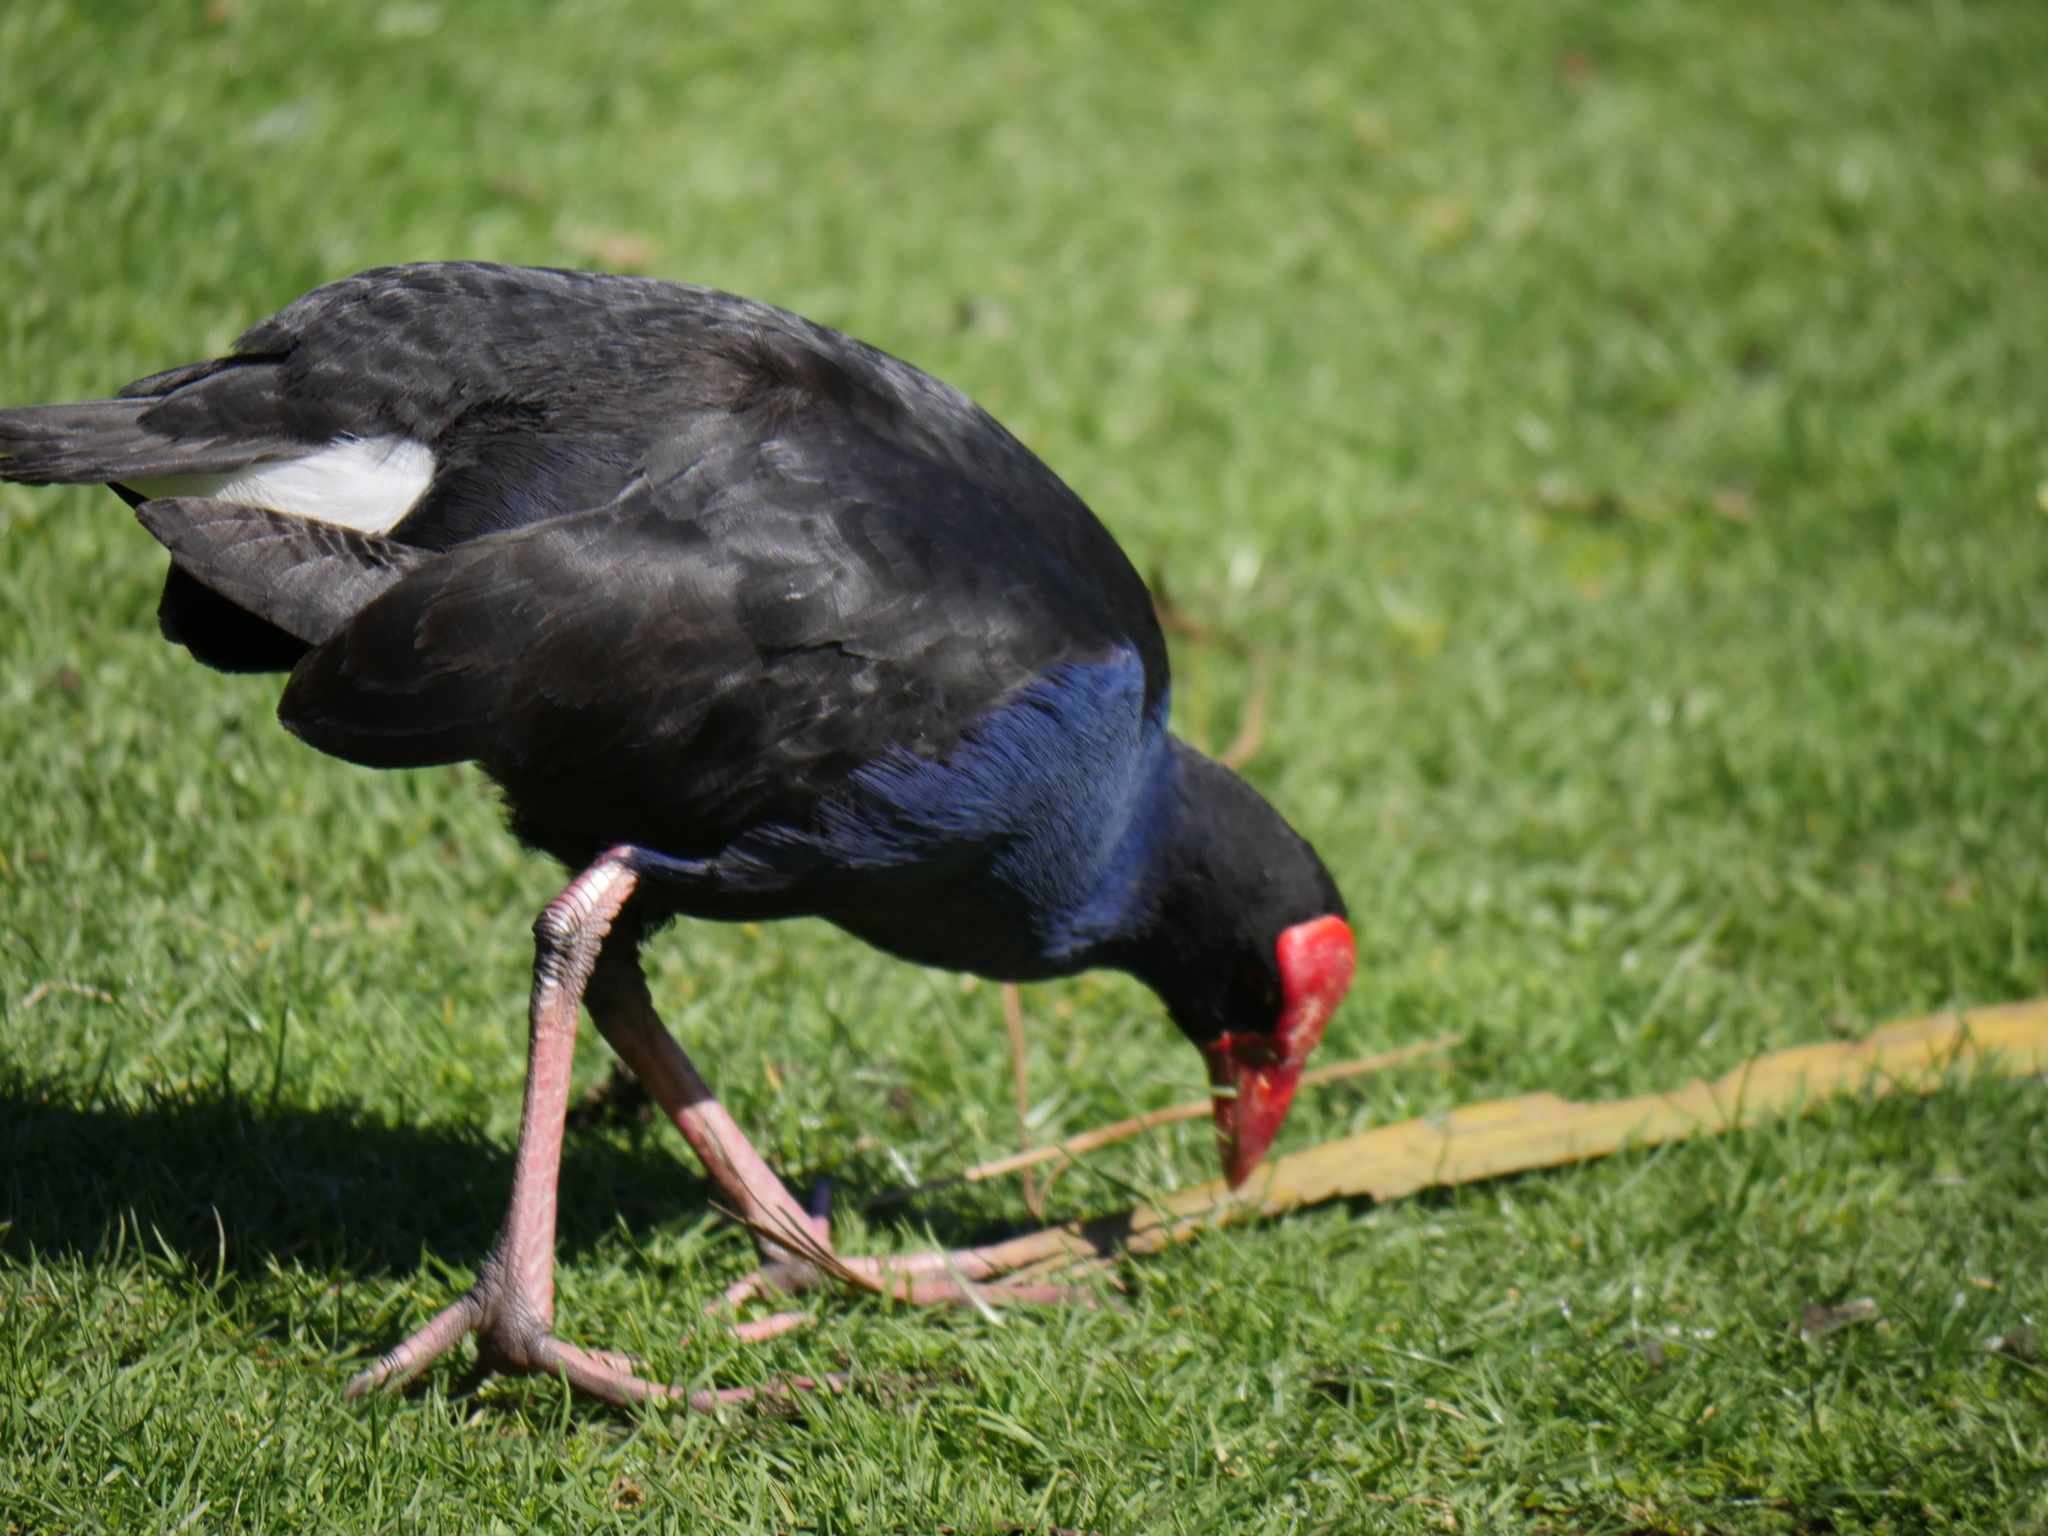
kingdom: Animalia
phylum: Chordata
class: Aves
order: Gruiformes
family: Rallidae
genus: Porphyrio
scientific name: Porphyrio melanotus
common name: Australasian swamphen
